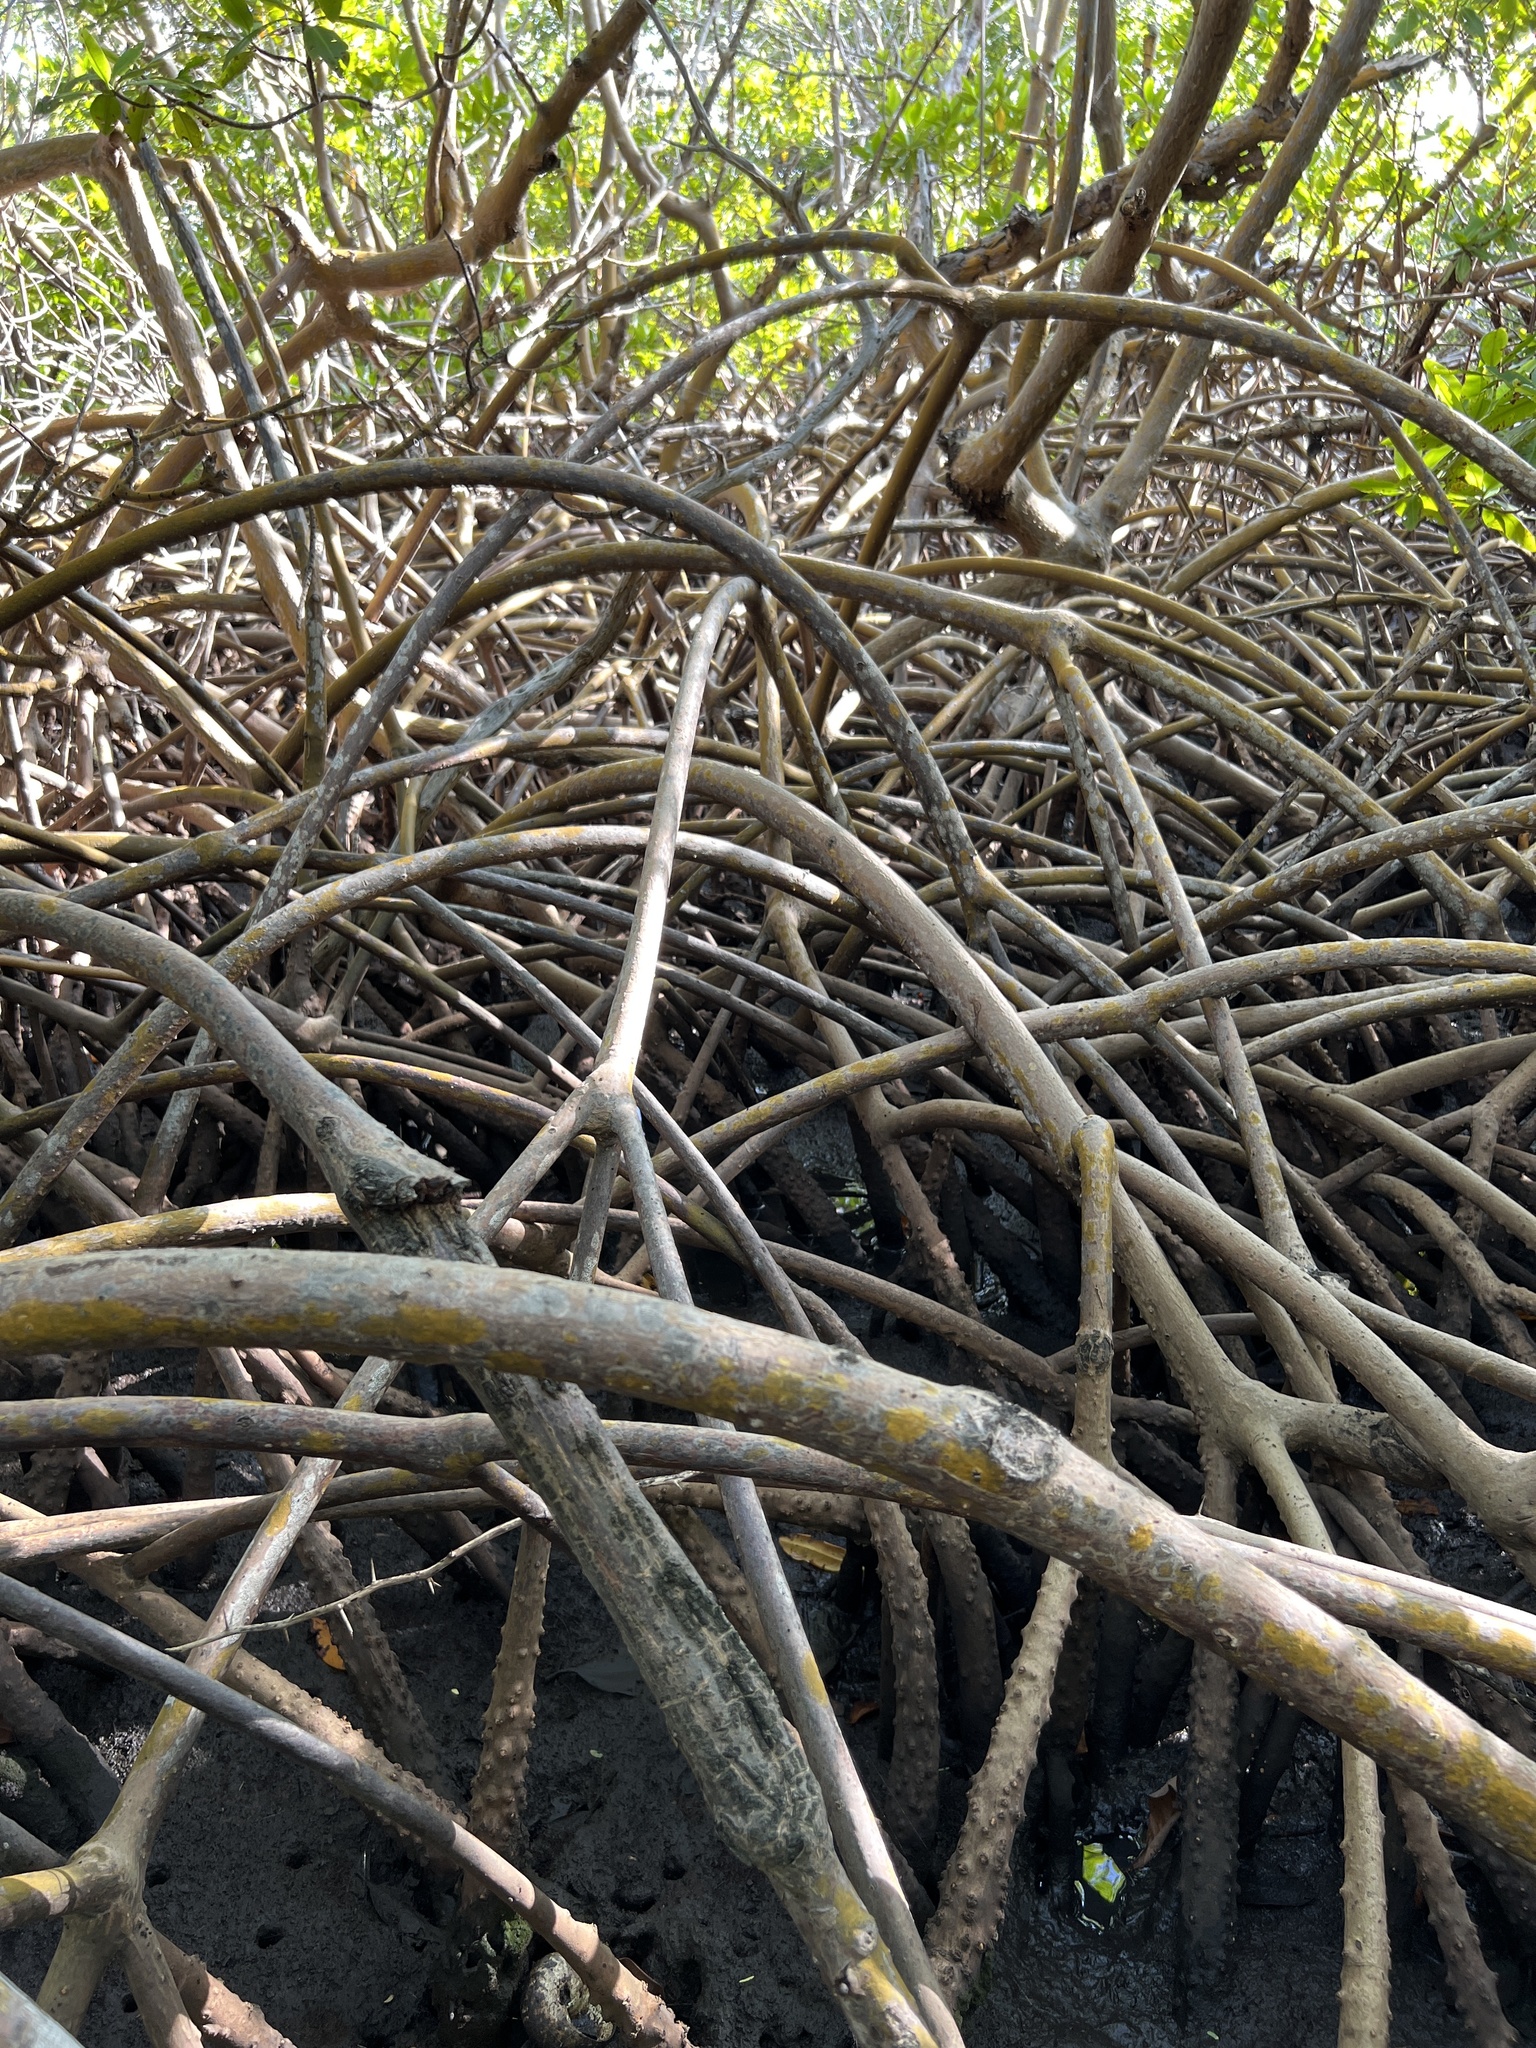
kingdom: Plantae
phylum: Tracheophyta
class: Magnoliopsida
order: Malpighiales
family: Rhizophoraceae
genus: Rhizophora
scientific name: Rhizophora mangle
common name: Red mangrove
